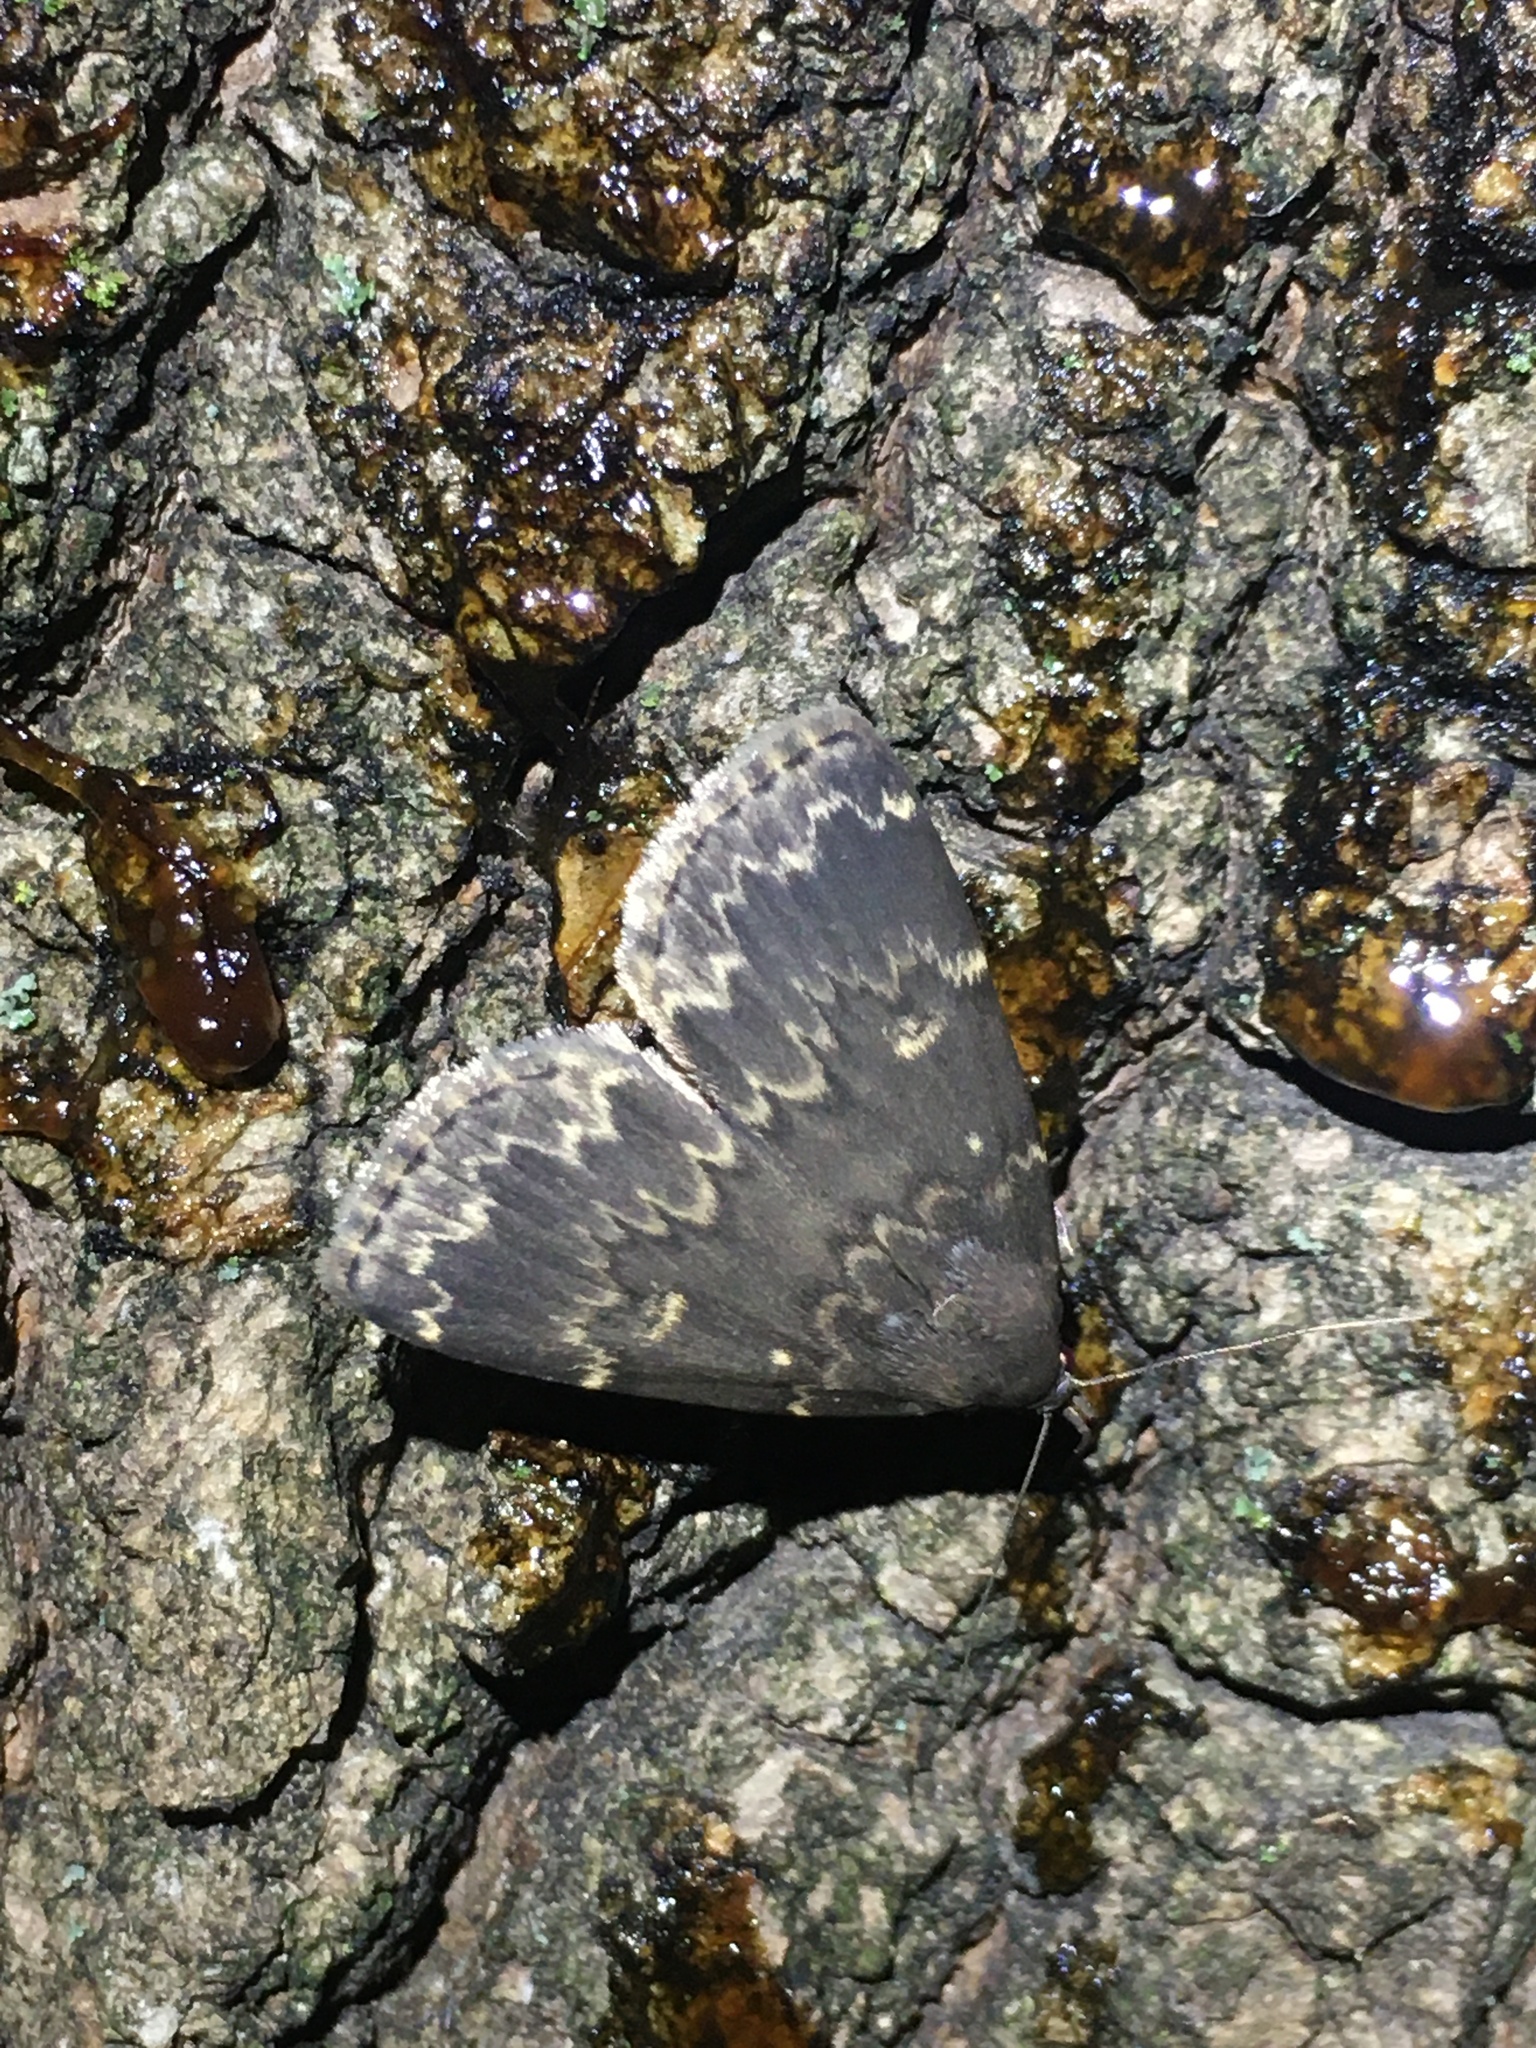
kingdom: Animalia
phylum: Arthropoda
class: Insecta
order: Lepidoptera
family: Erebidae
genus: Idia
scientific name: Idia lubricalis
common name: Twin-striped tabby
